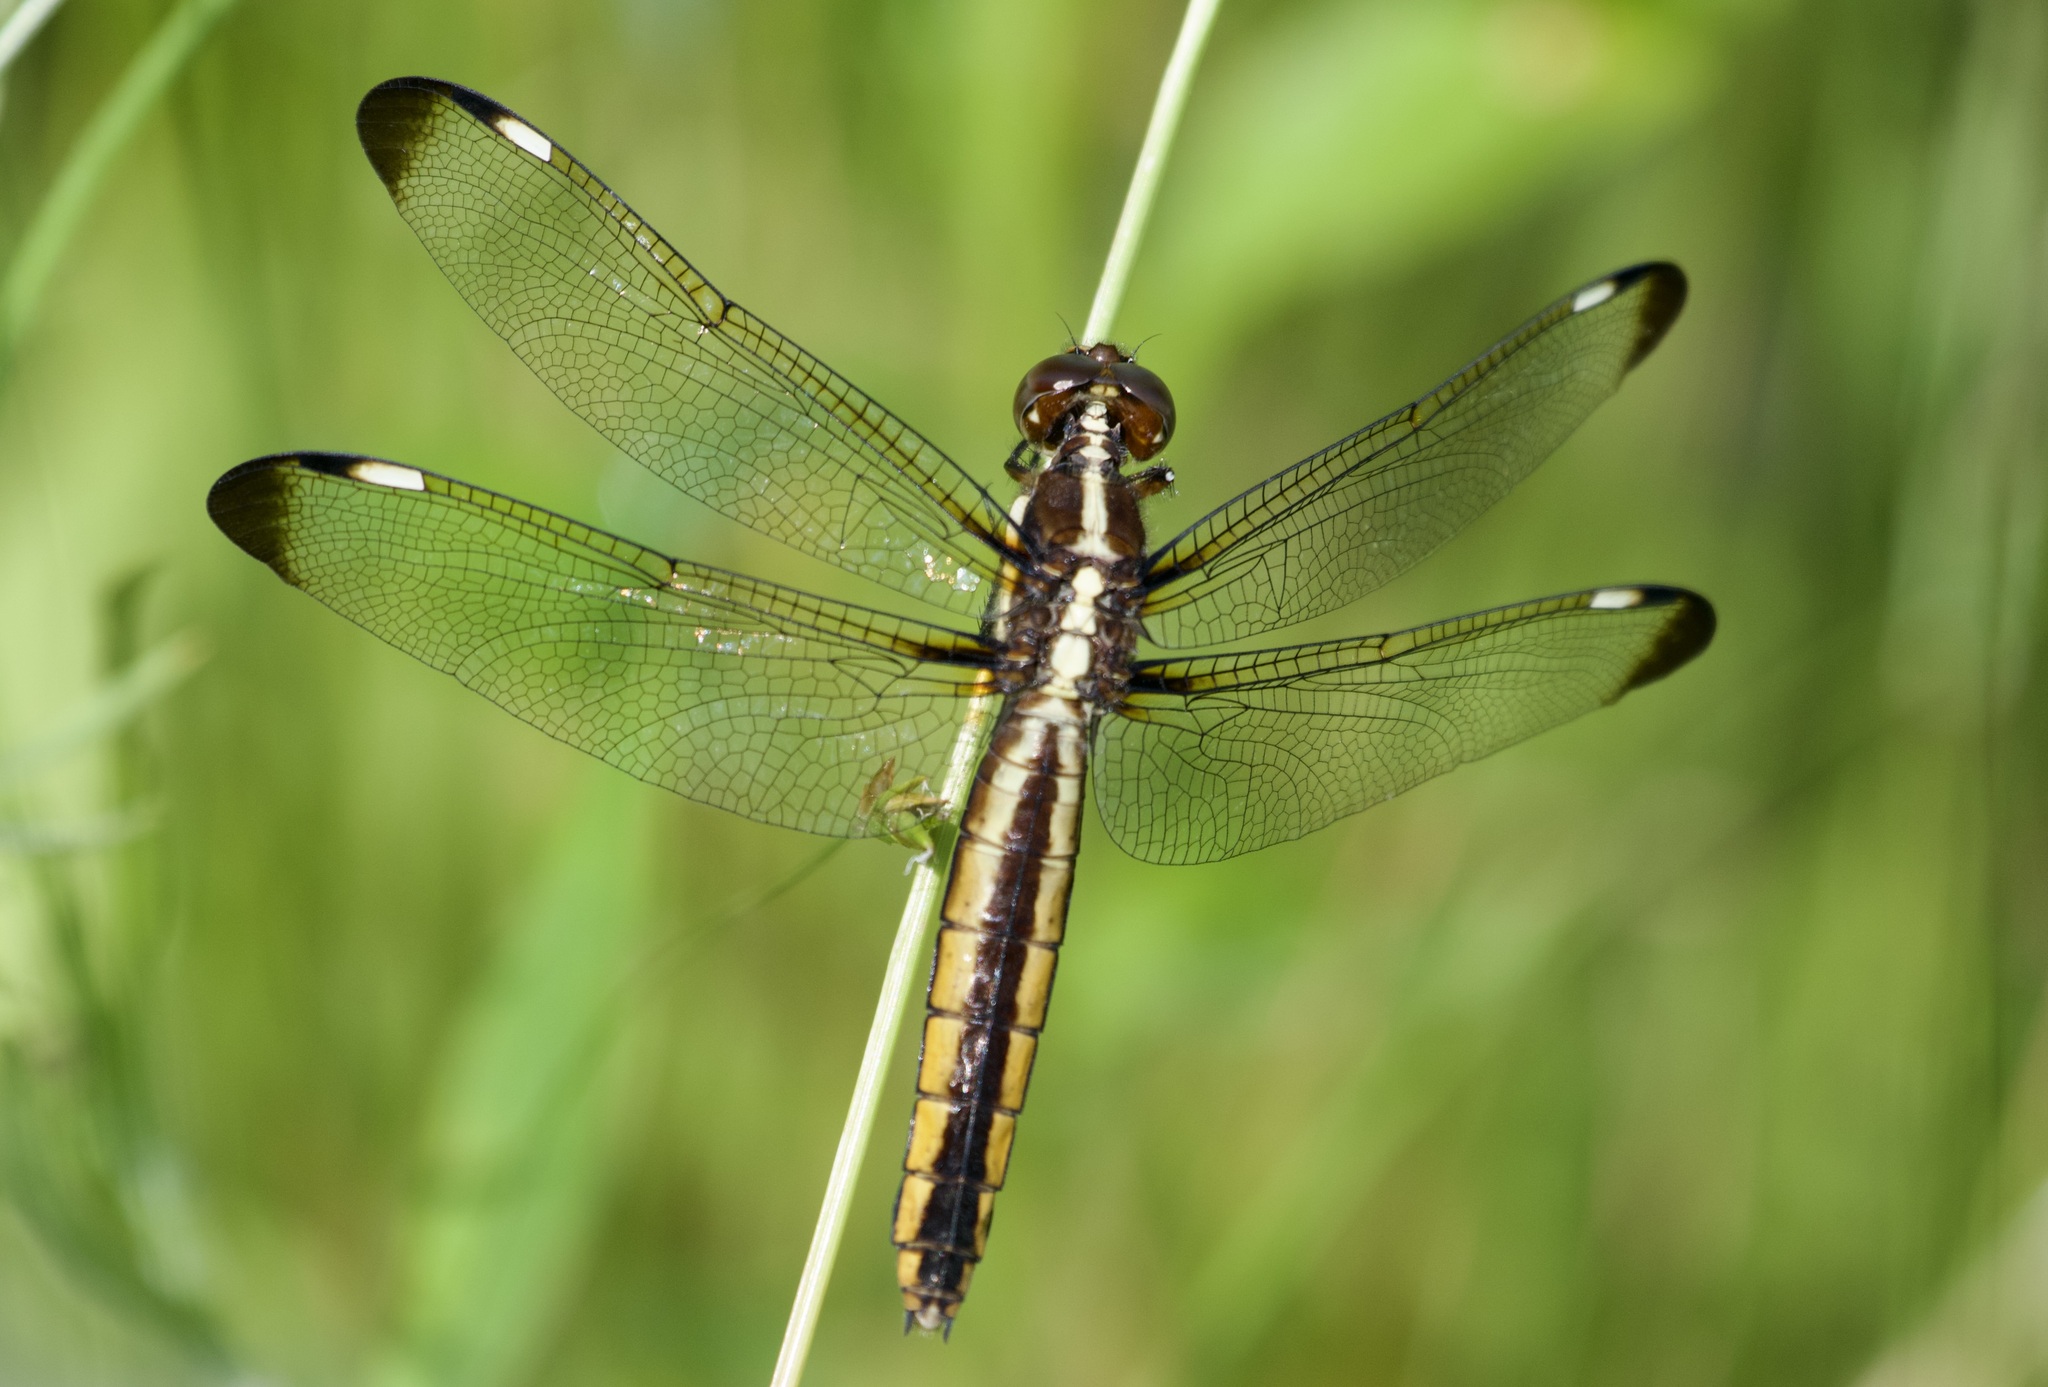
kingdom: Animalia
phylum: Arthropoda
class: Insecta
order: Odonata
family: Libellulidae
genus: Libellula
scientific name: Libellula cyanea
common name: Spangled skimmer
